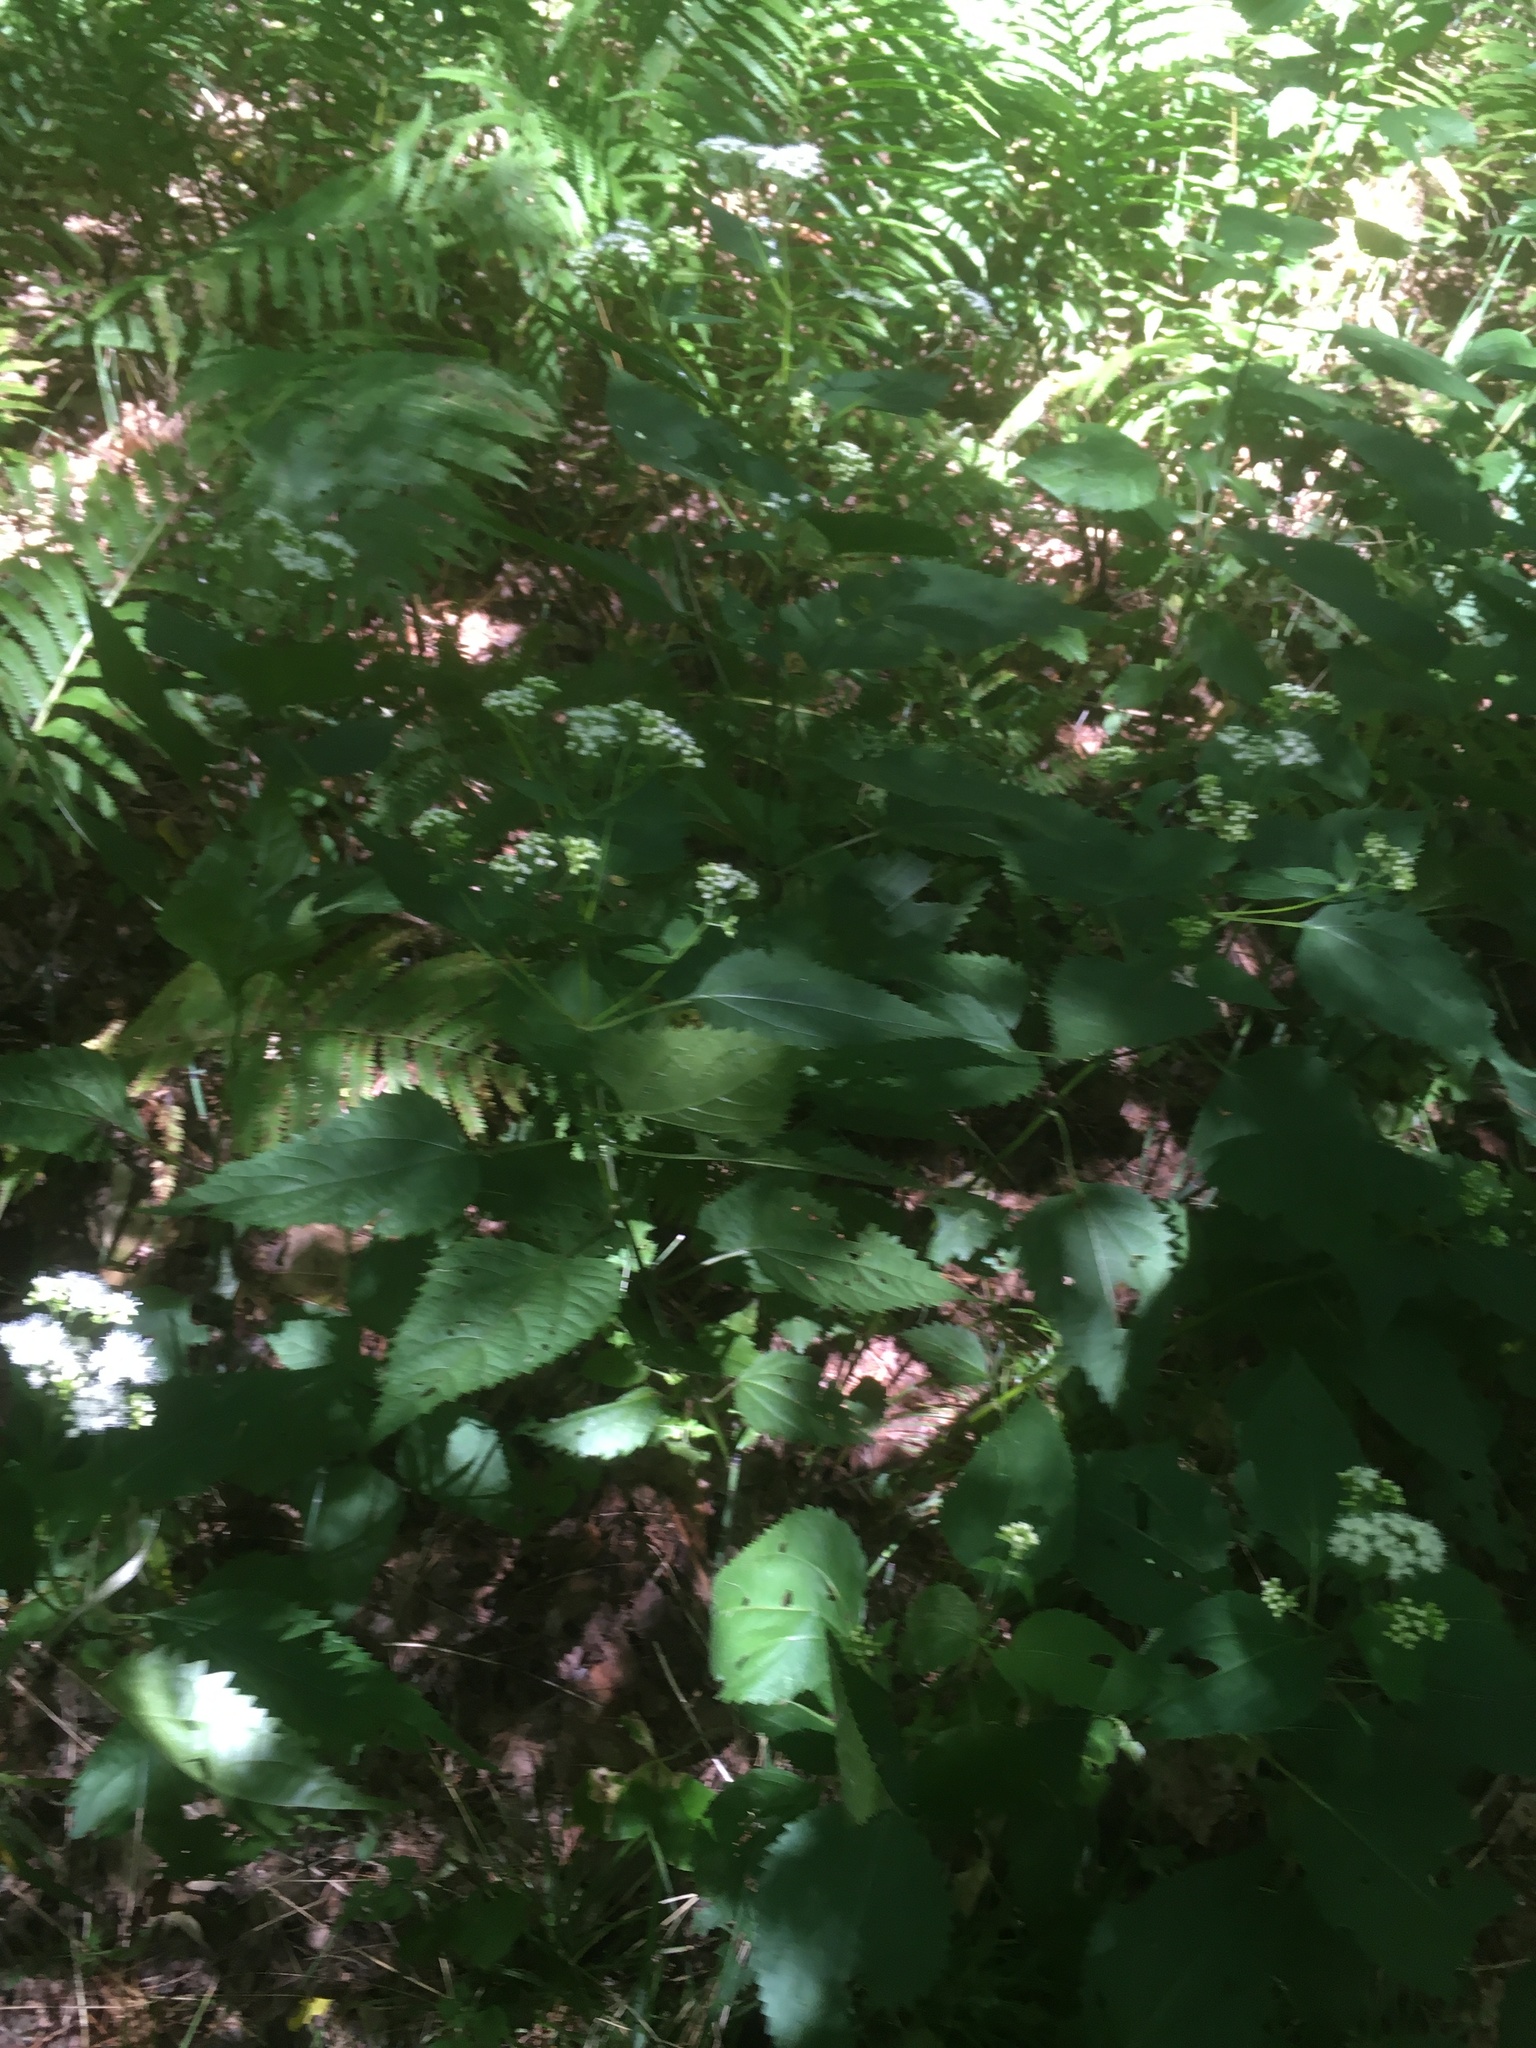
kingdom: Plantae
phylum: Tracheophyta
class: Magnoliopsida
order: Asterales
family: Asteraceae
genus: Ageratina
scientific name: Ageratina altissima
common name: White snakeroot
